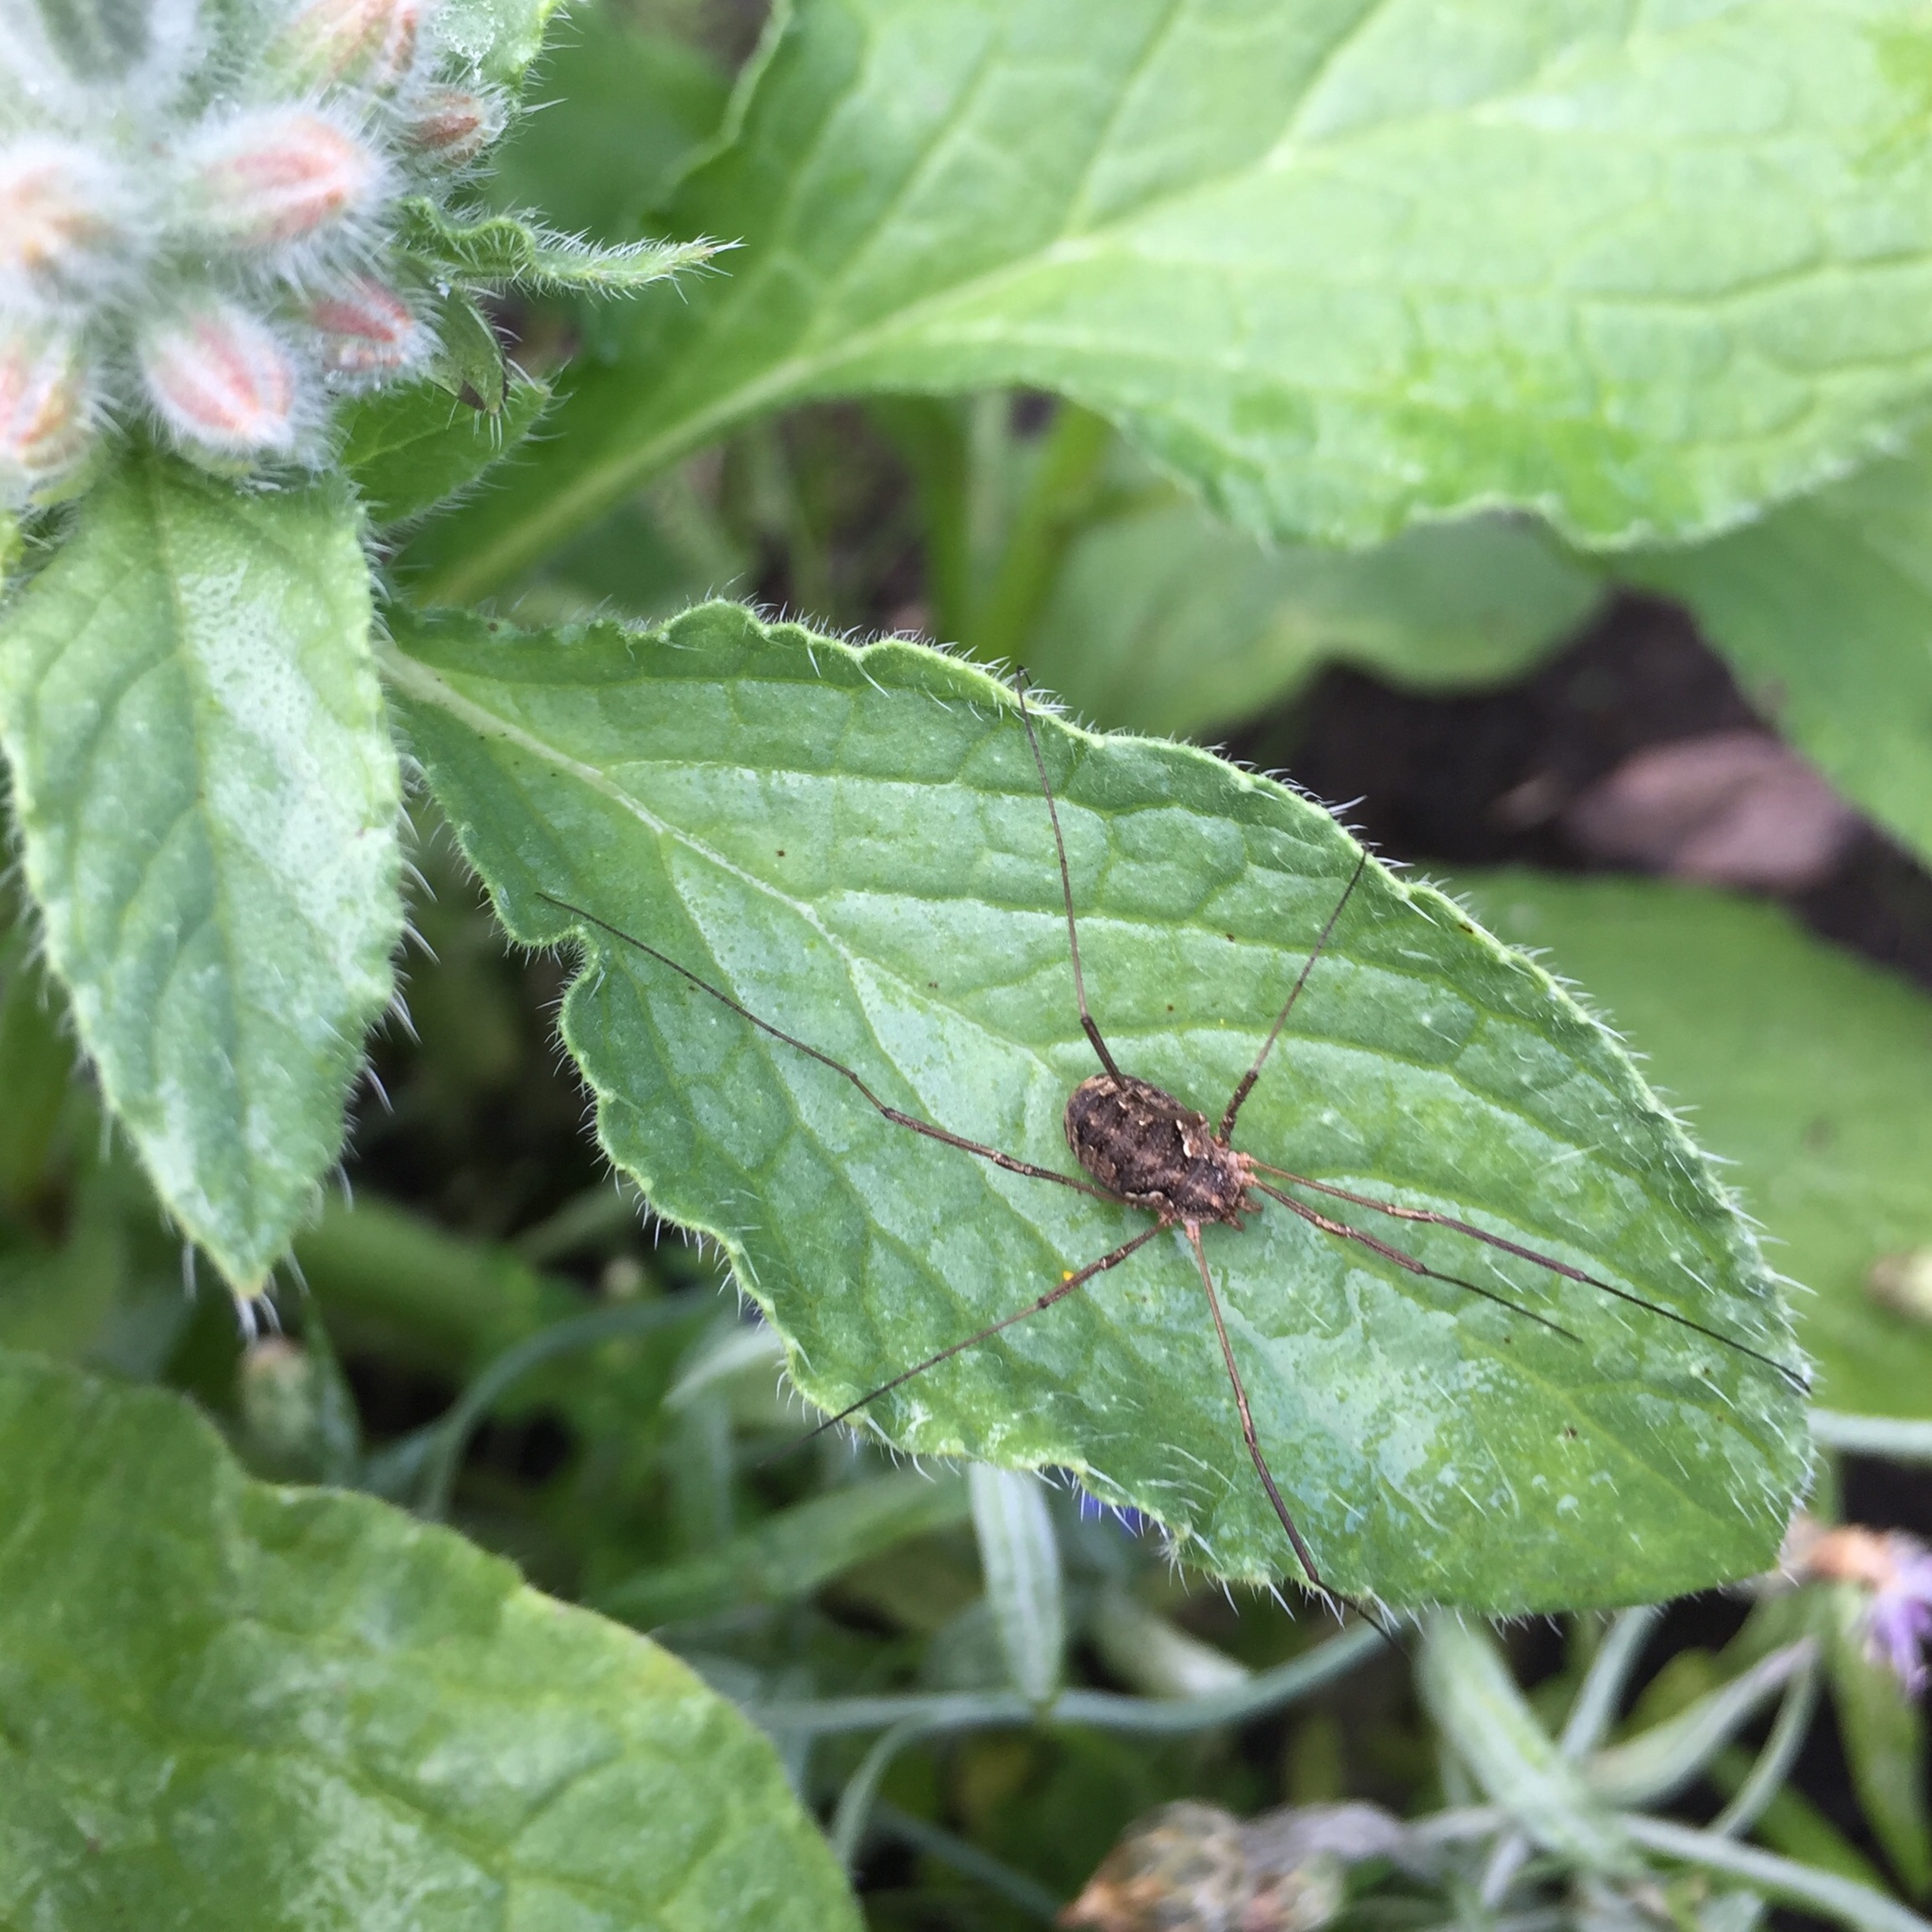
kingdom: Animalia
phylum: Arthropoda
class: Arachnida
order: Opiliones
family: Phalangiidae
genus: Phalangium
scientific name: Phalangium opilio
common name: Daddy longleg
